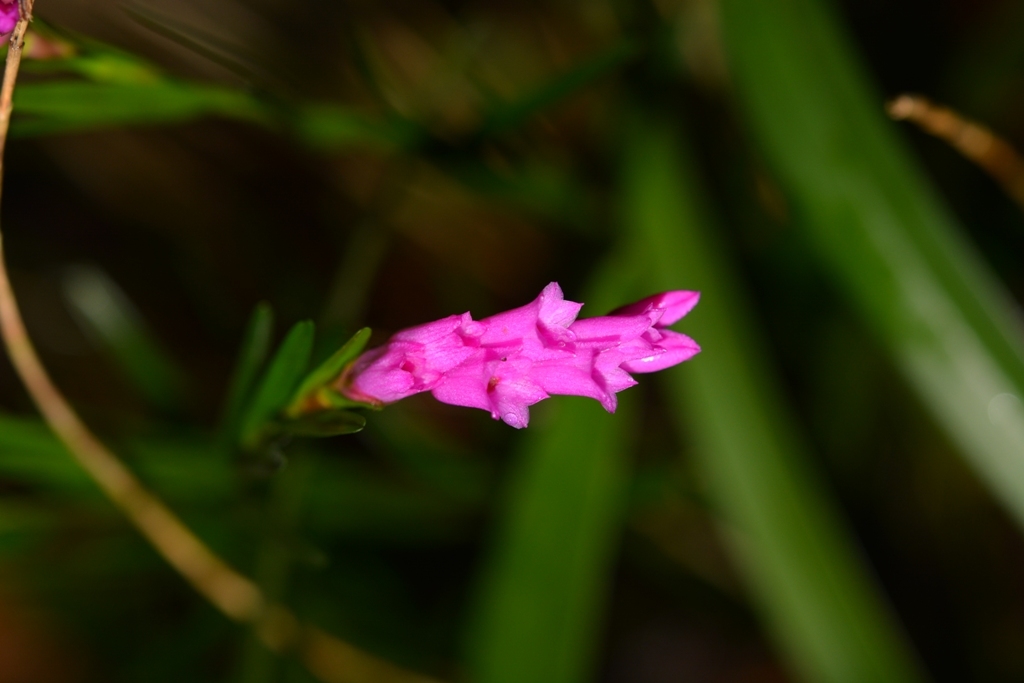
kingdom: Plantae
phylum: Tracheophyta
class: Liliopsida
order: Asparagales
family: Orchidaceae
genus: Isochilus
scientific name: Isochilus latibracteatus
